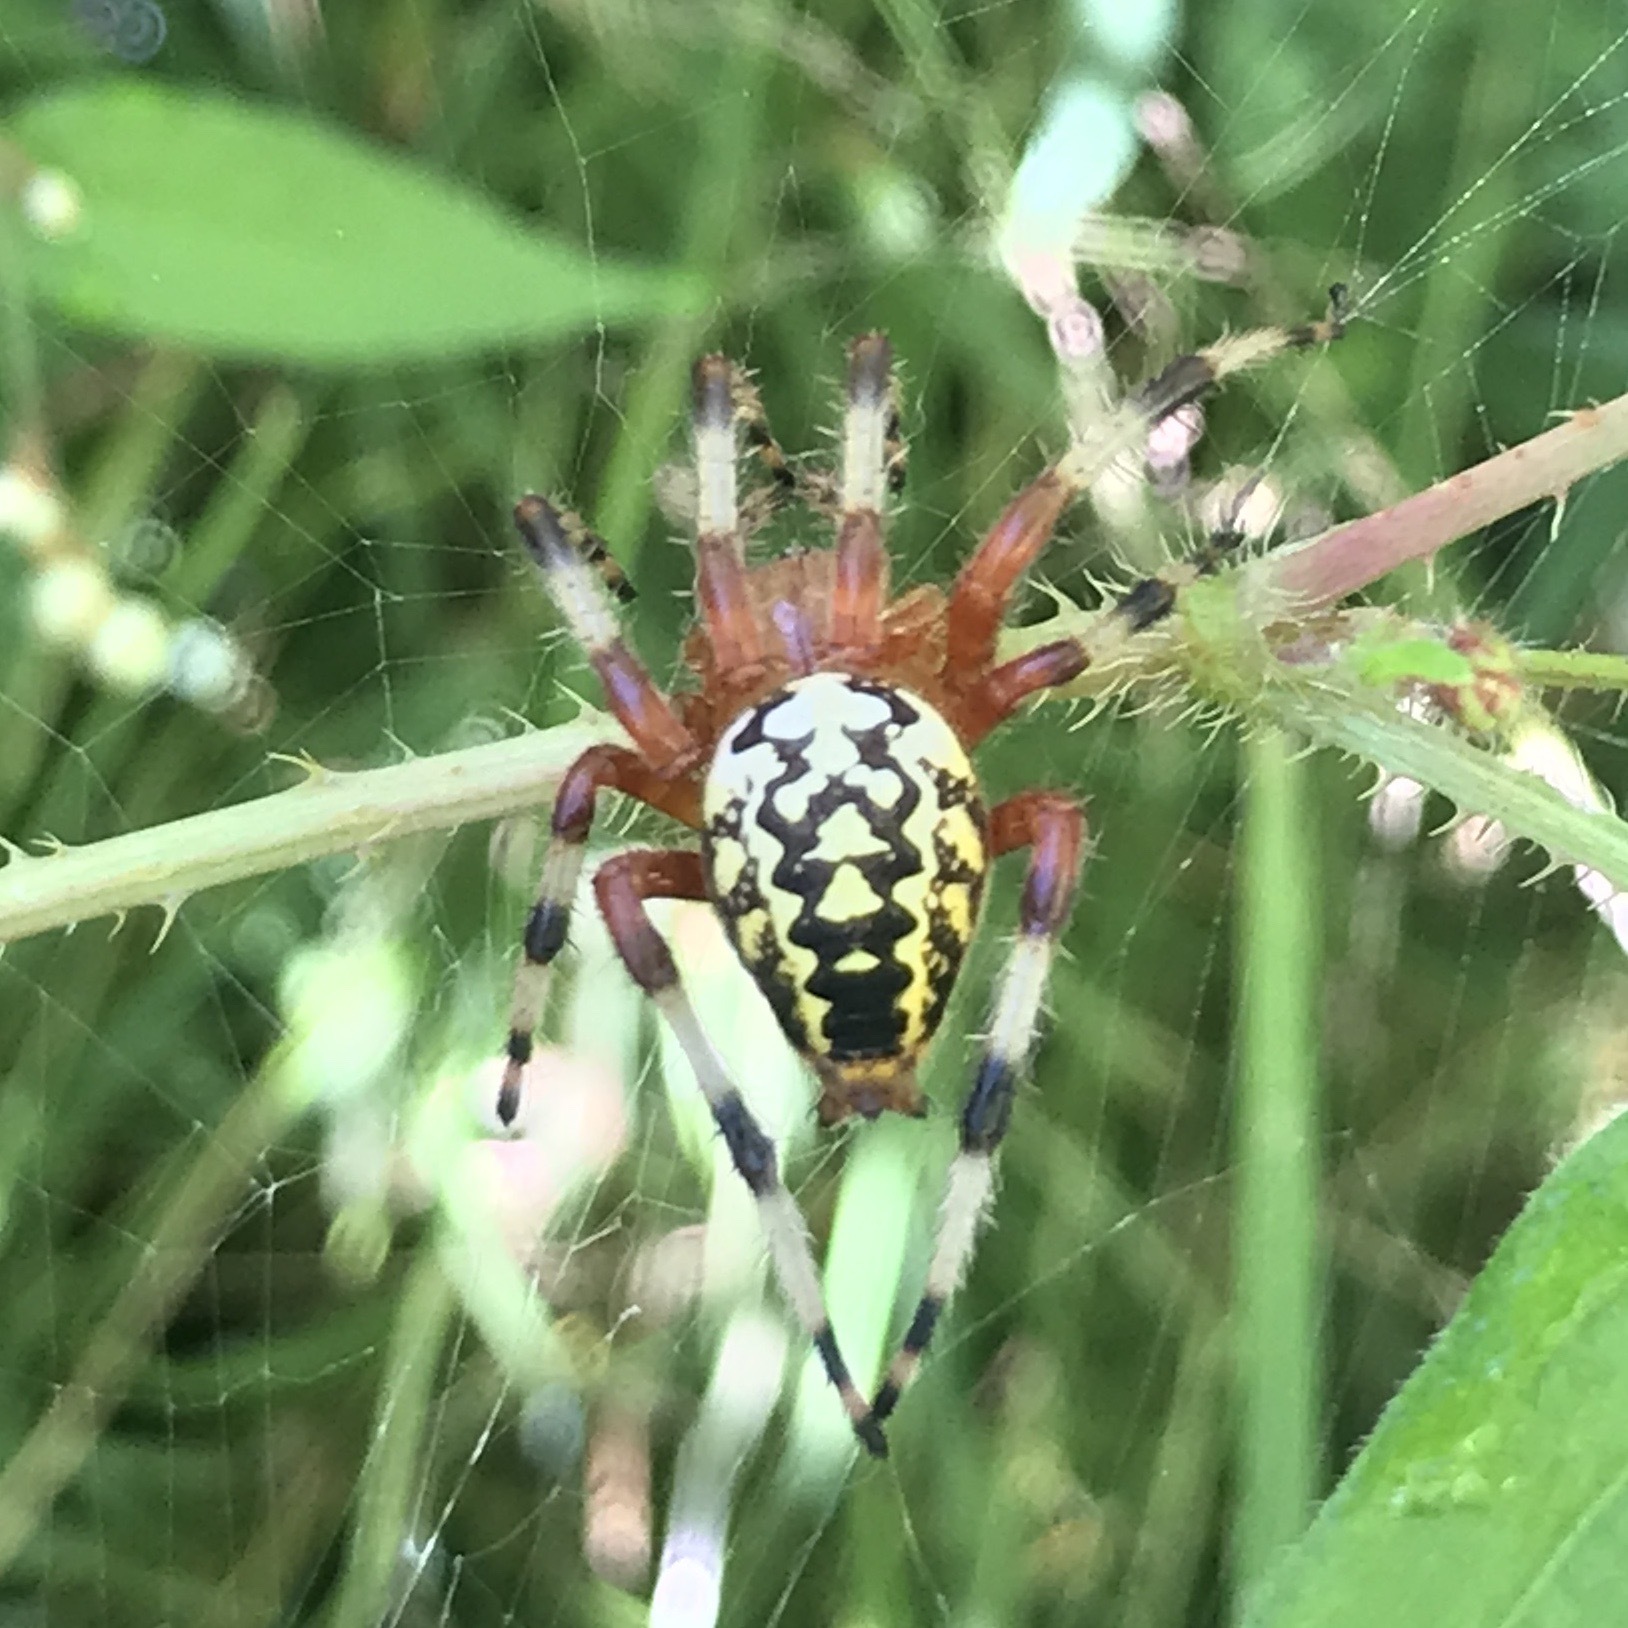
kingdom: Animalia
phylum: Arthropoda
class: Arachnida
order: Araneae
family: Araneidae
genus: Araneus
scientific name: Araneus marmoreus
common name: Marbled orbweaver
